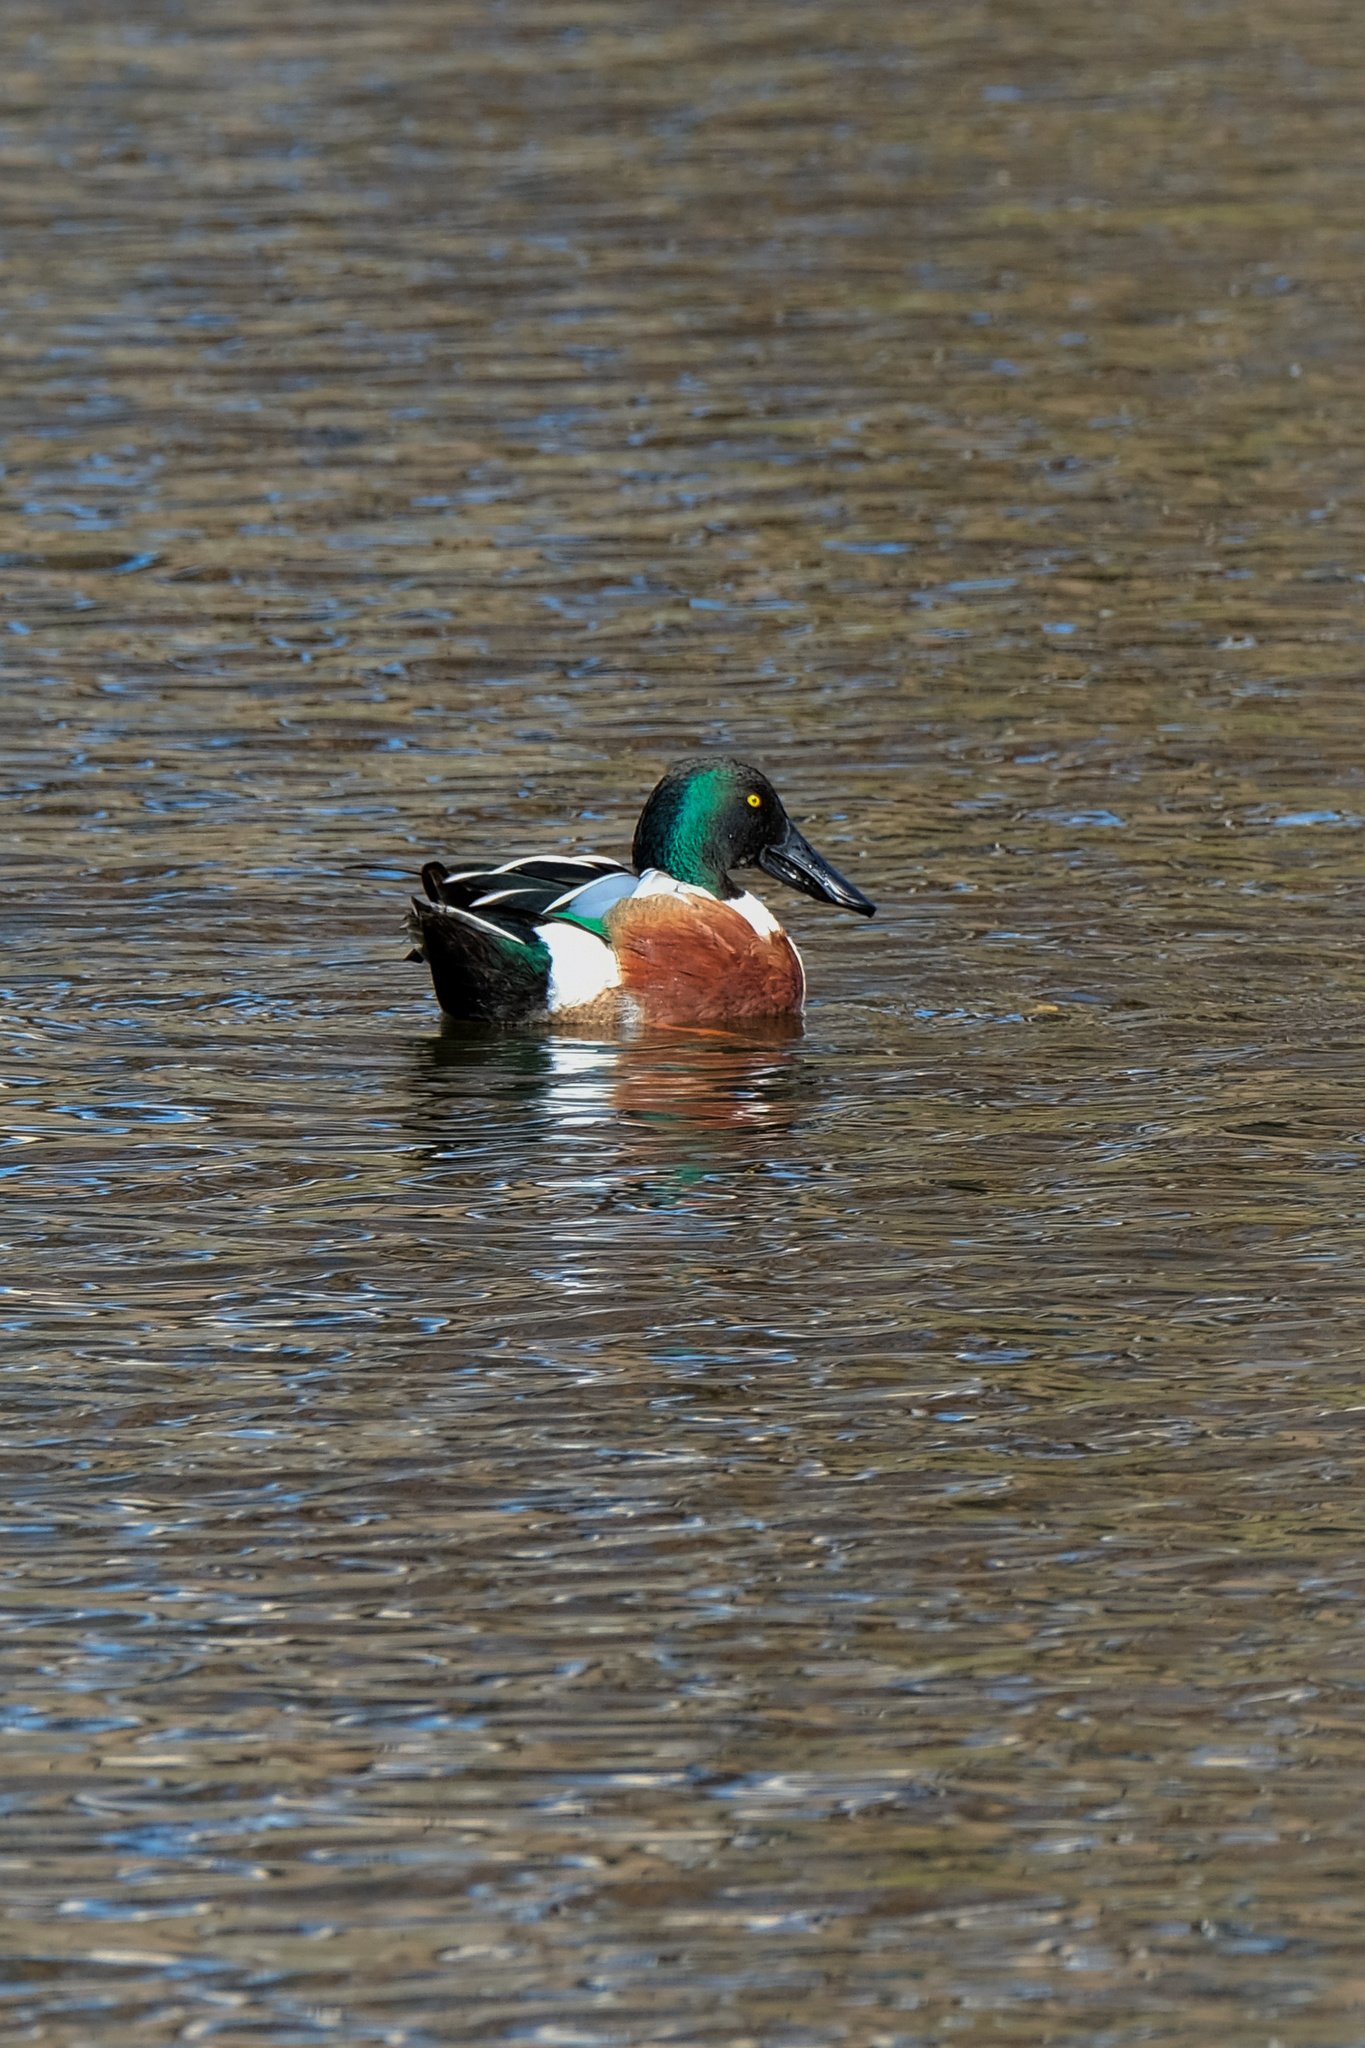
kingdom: Animalia
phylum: Chordata
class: Aves
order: Anseriformes
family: Anatidae
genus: Spatula
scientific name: Spatula clypeata
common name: Northern shoveler
